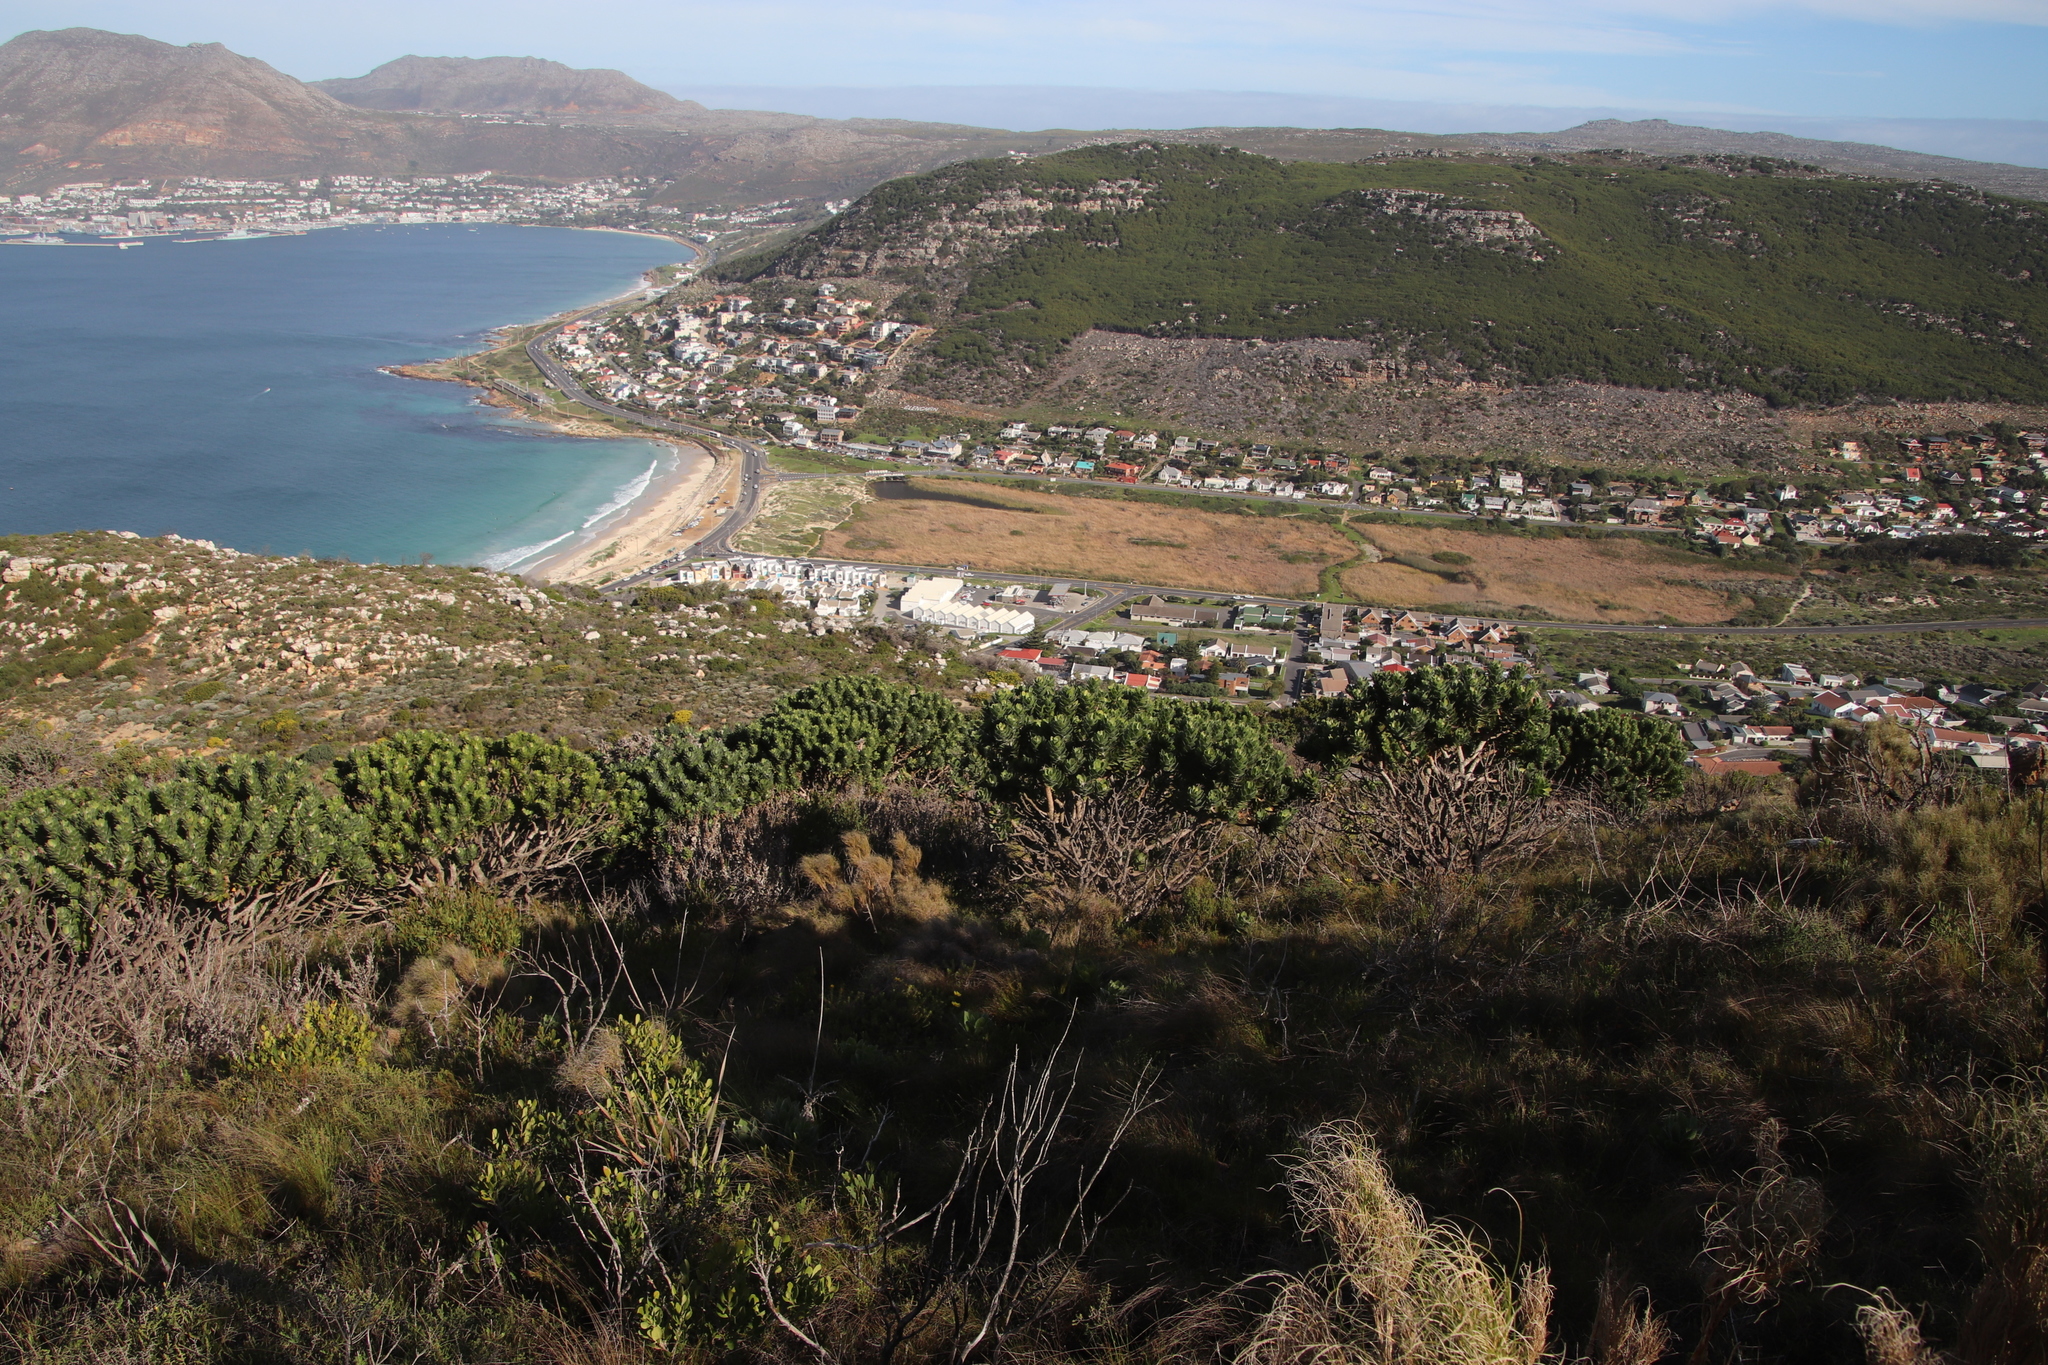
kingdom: Plantae
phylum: Tracheophyta
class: Liliopsida
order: Poales
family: Poaceae
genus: Phragmites
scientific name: Phragmites australis
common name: Common reed
